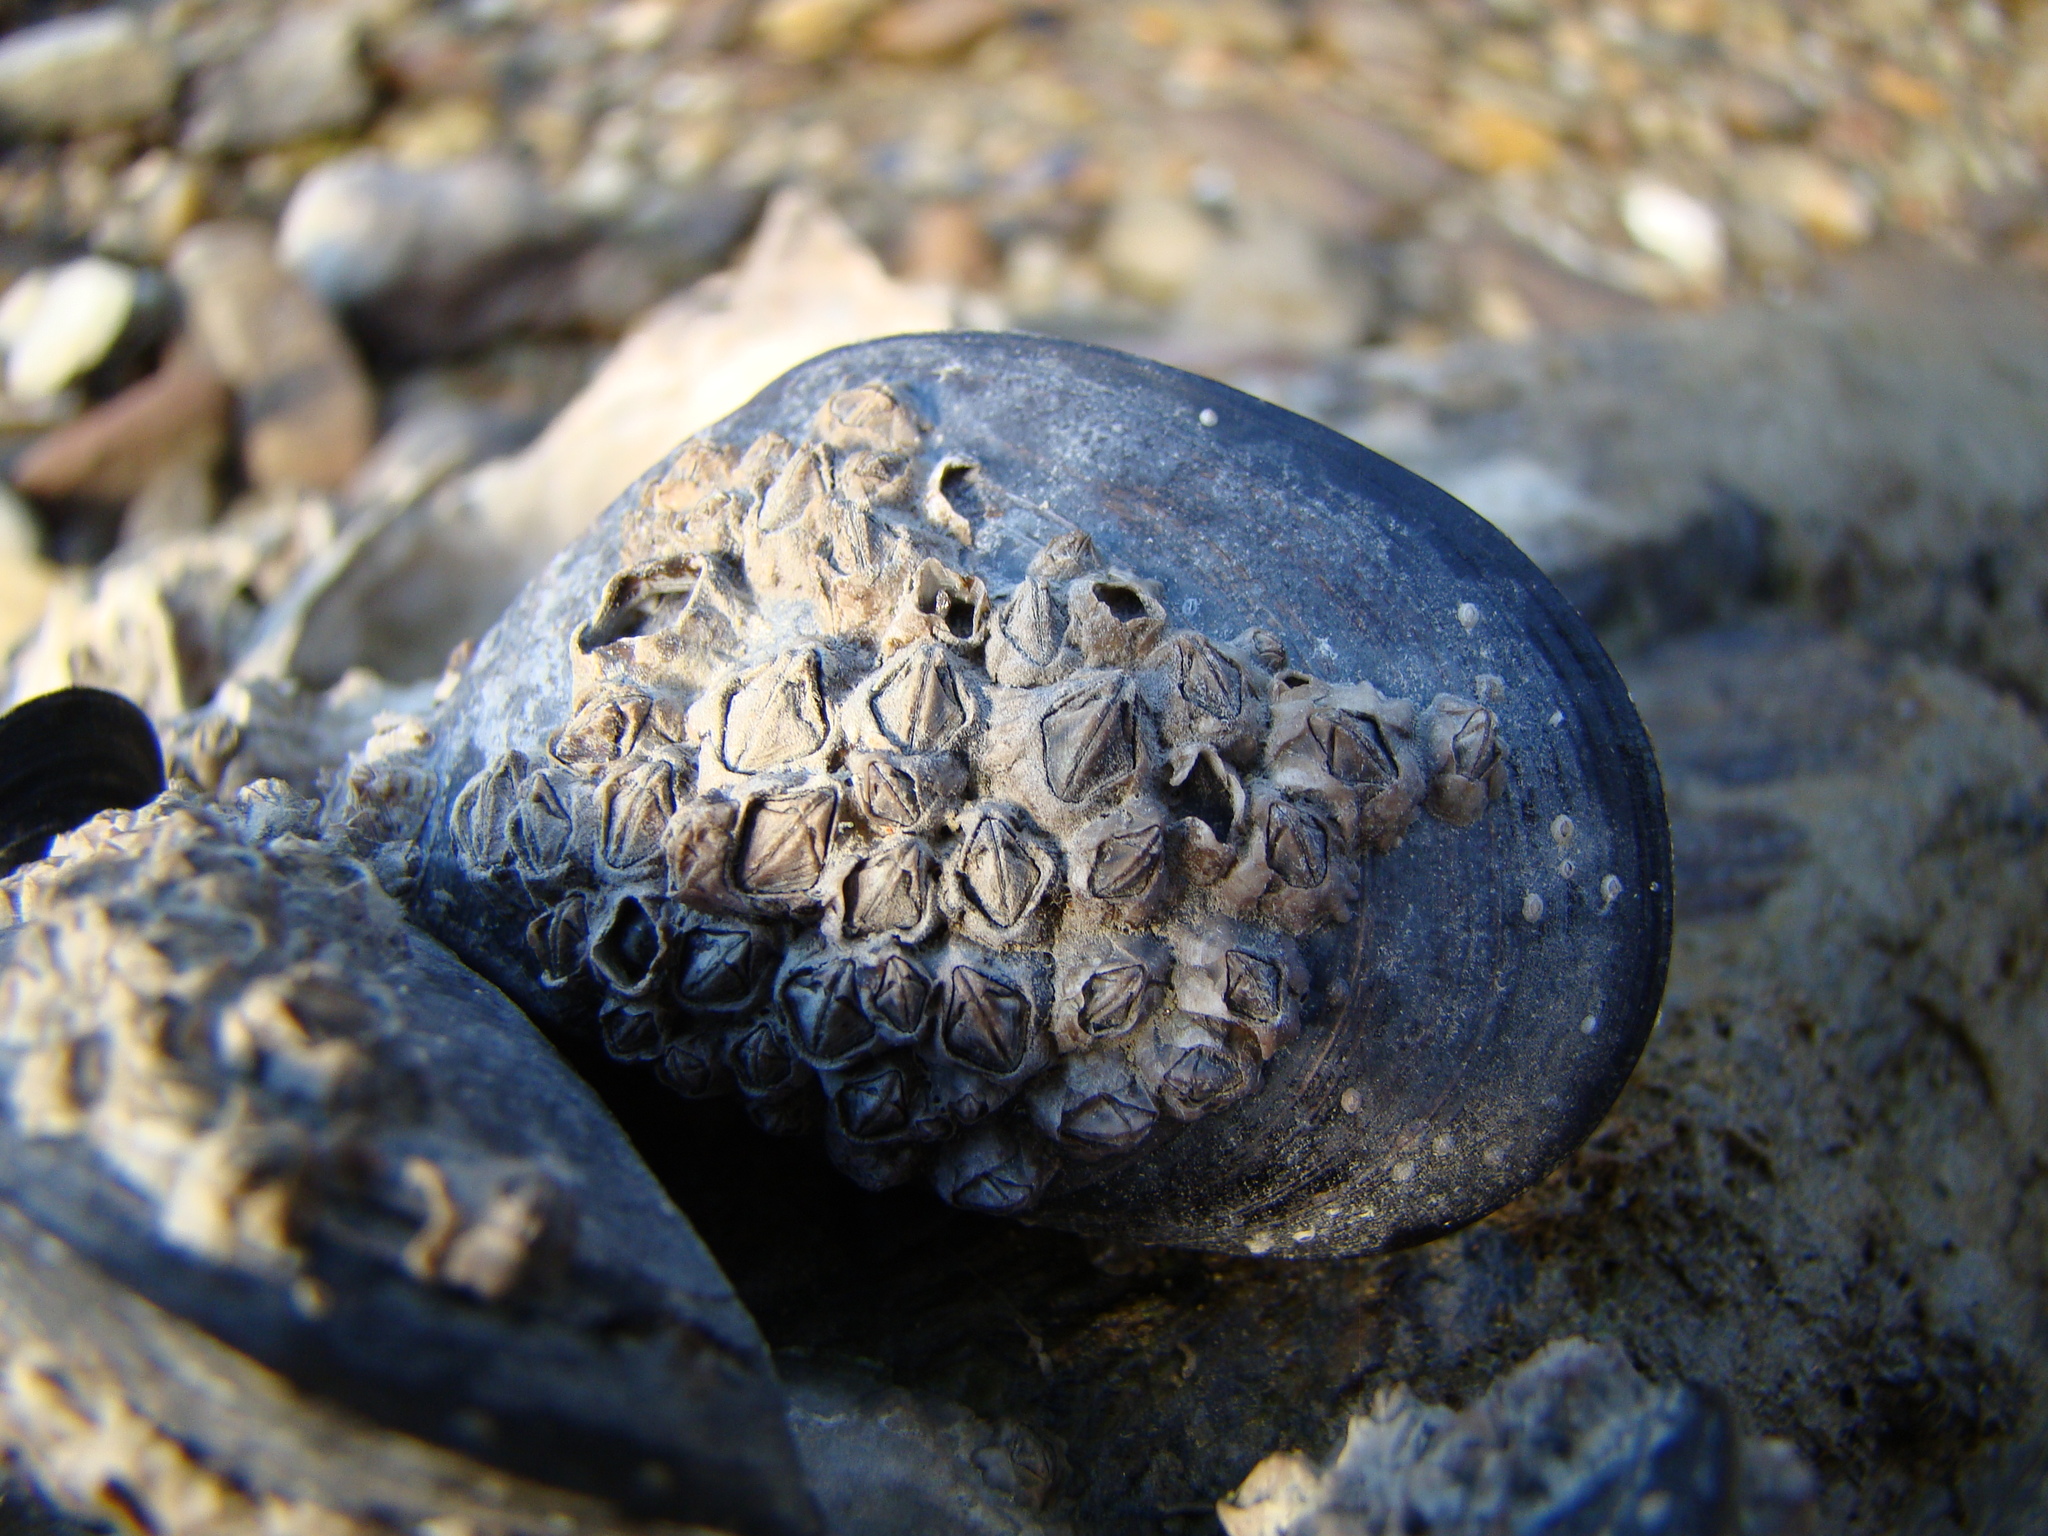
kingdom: Animalia
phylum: Arthropoda
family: Elminiidae
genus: Austrominius
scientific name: Austrominius modestus
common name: Australasian barnacle
